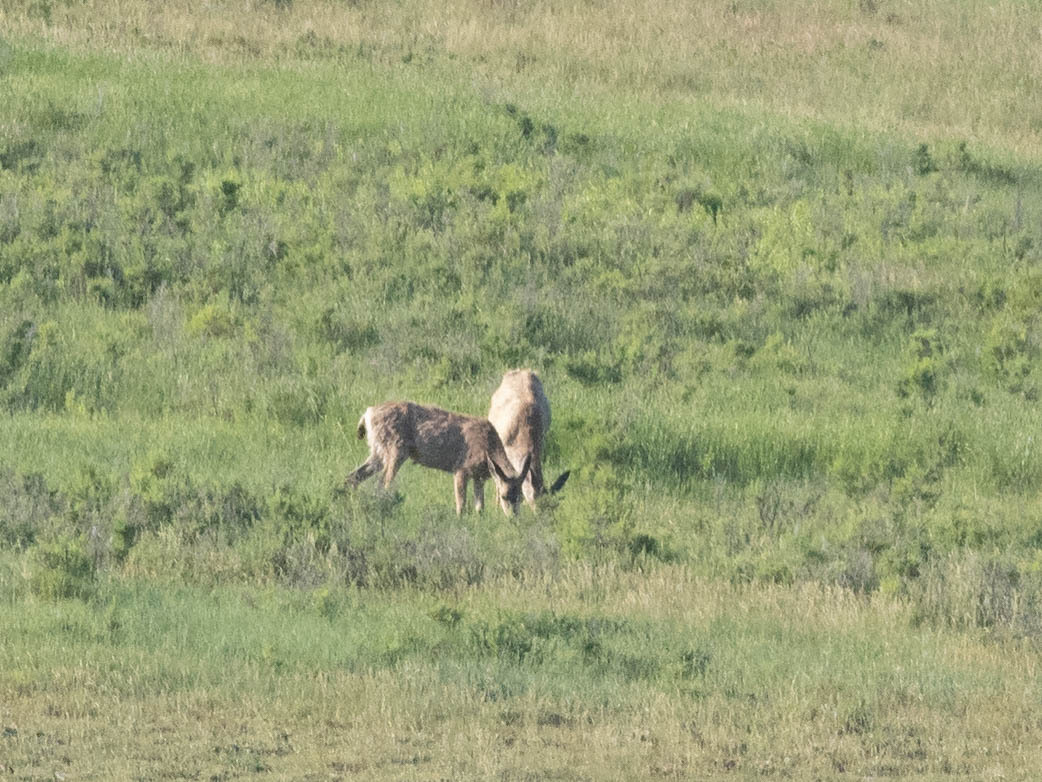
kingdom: Animalia
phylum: Chordata
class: Mammalia
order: Artiodactyla
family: Cervidae
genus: Odocoileus
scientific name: Odocoileus hemionus
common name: Mule deer
